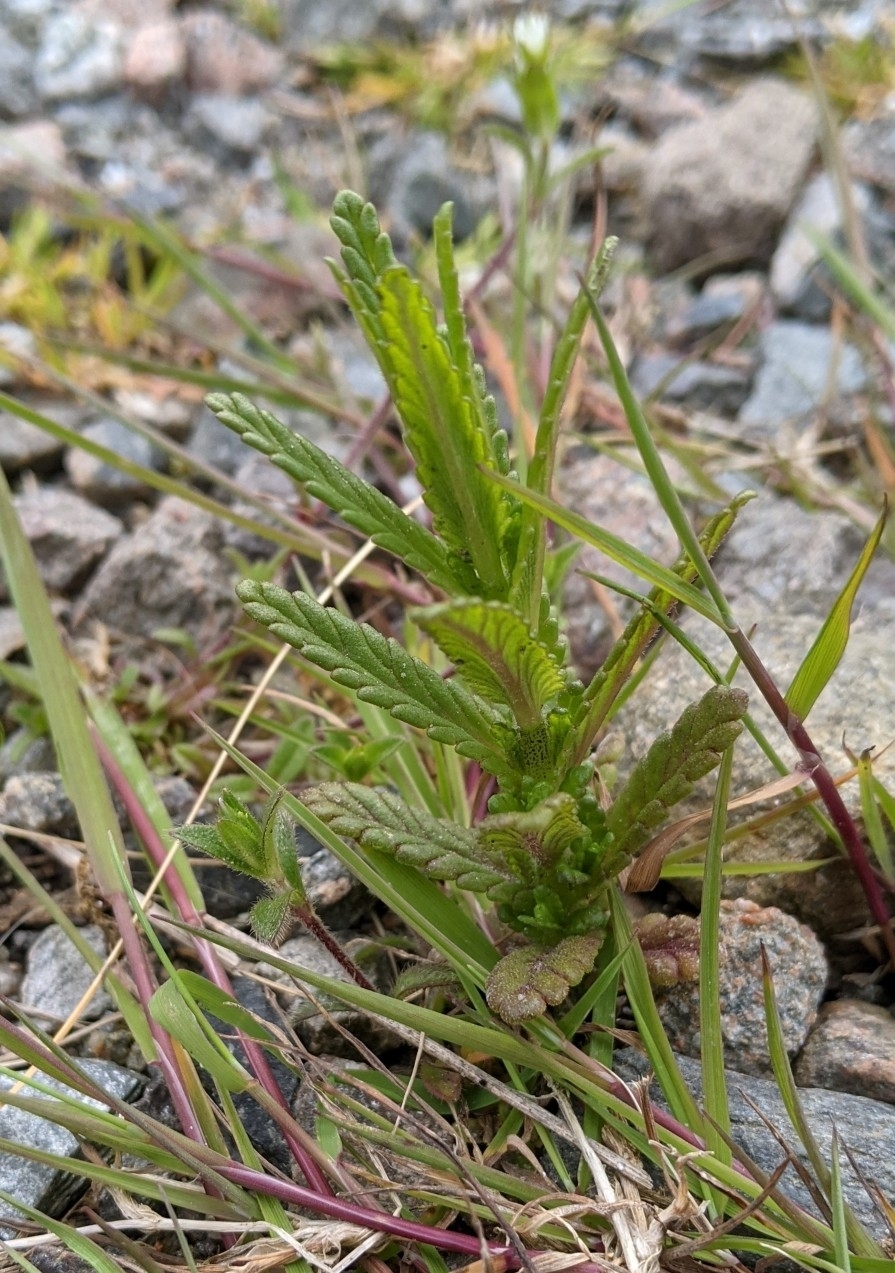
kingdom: Plantae
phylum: Tracheophyta
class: Magnoliopsida
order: Lamiales
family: Orobanchaceae
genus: Rhinanthus
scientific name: Rhinanthus minor
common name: Yellow-rattle
